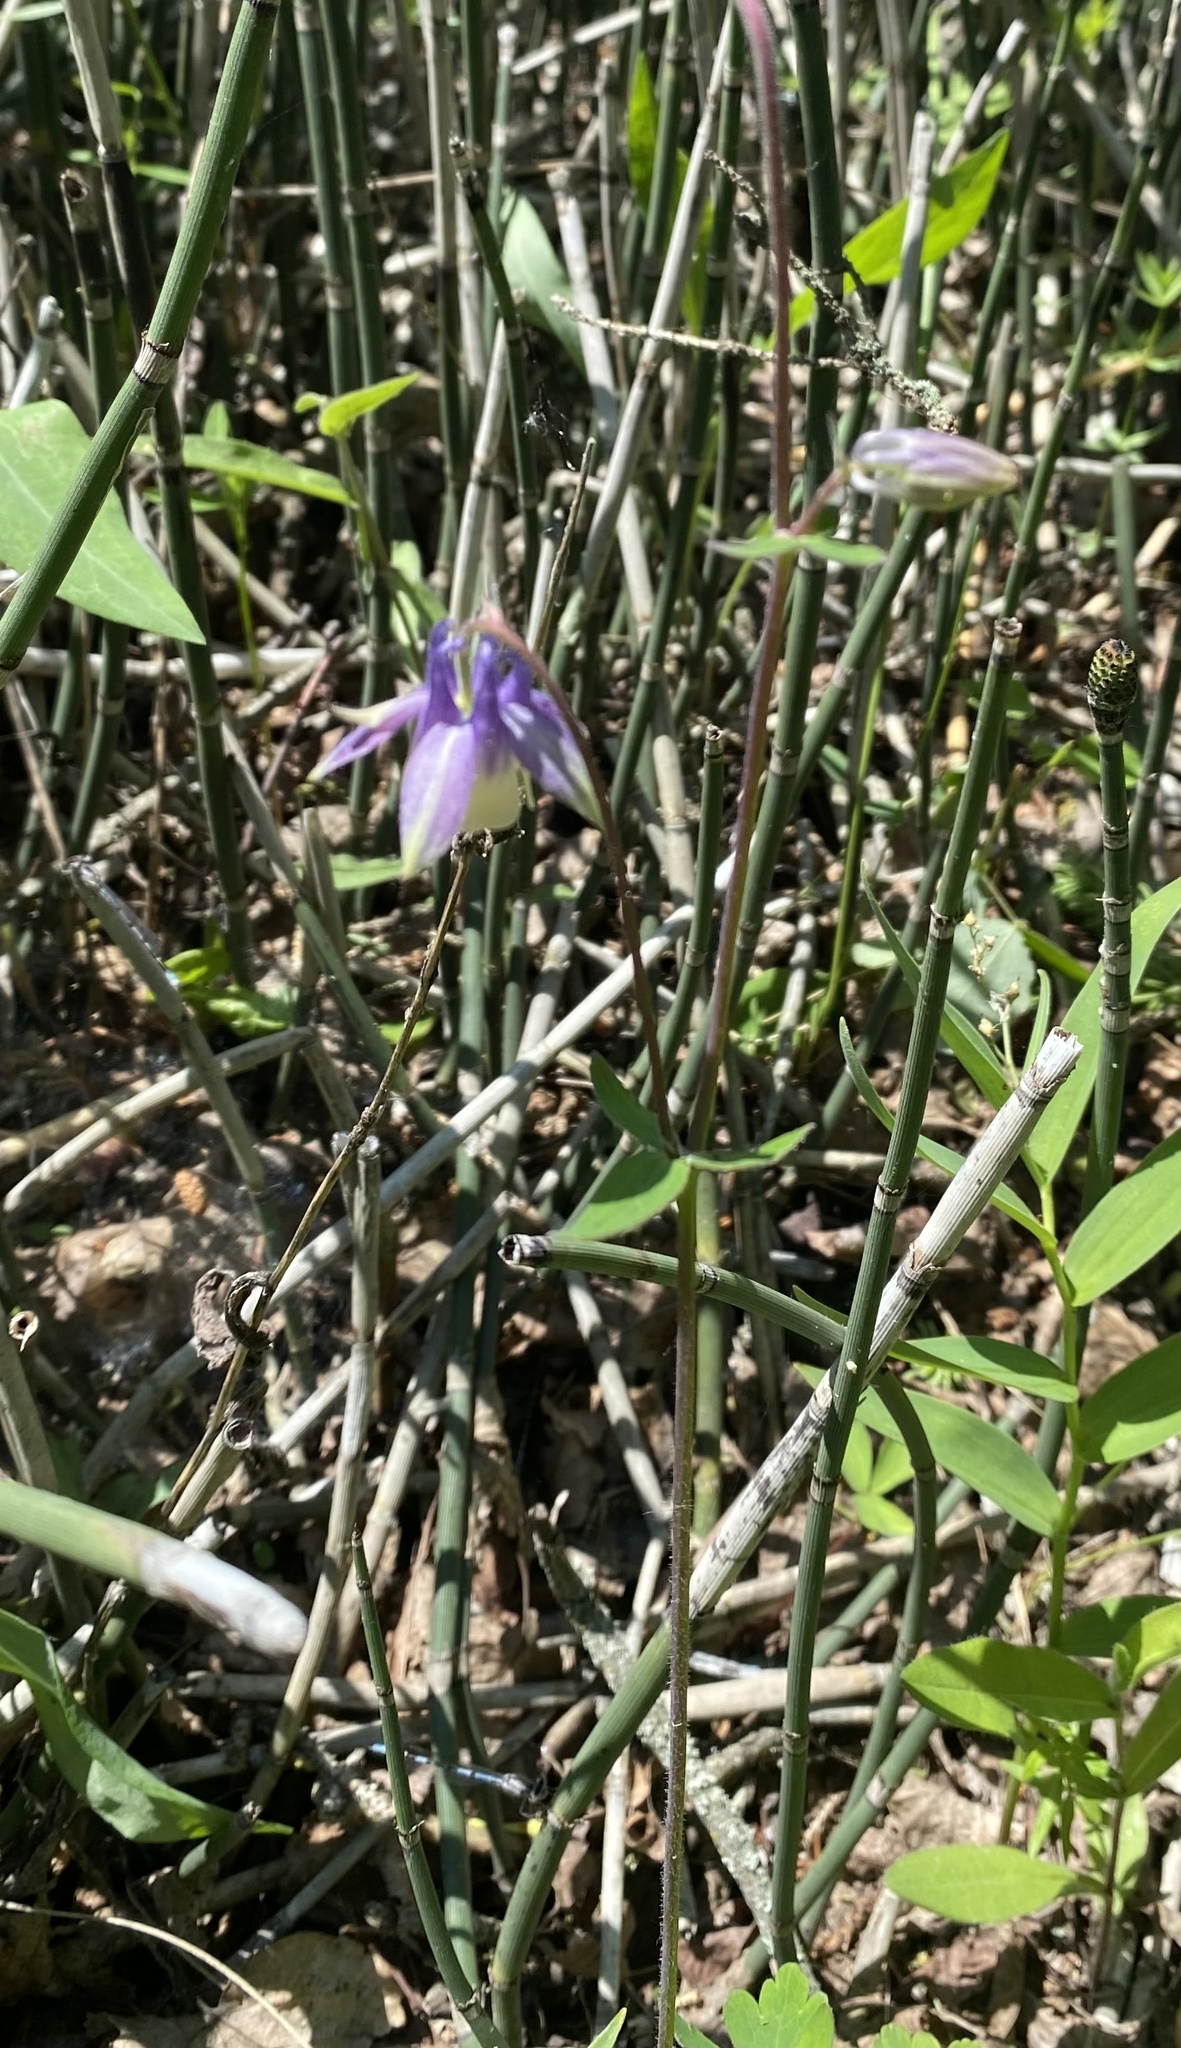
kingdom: Plantae
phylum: Tracheophyta
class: Magnoliopsida
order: Ranunculales
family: Ranunculaceae
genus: Aquilegia
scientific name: Aquilegia brevistyla
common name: Yukon columbine
